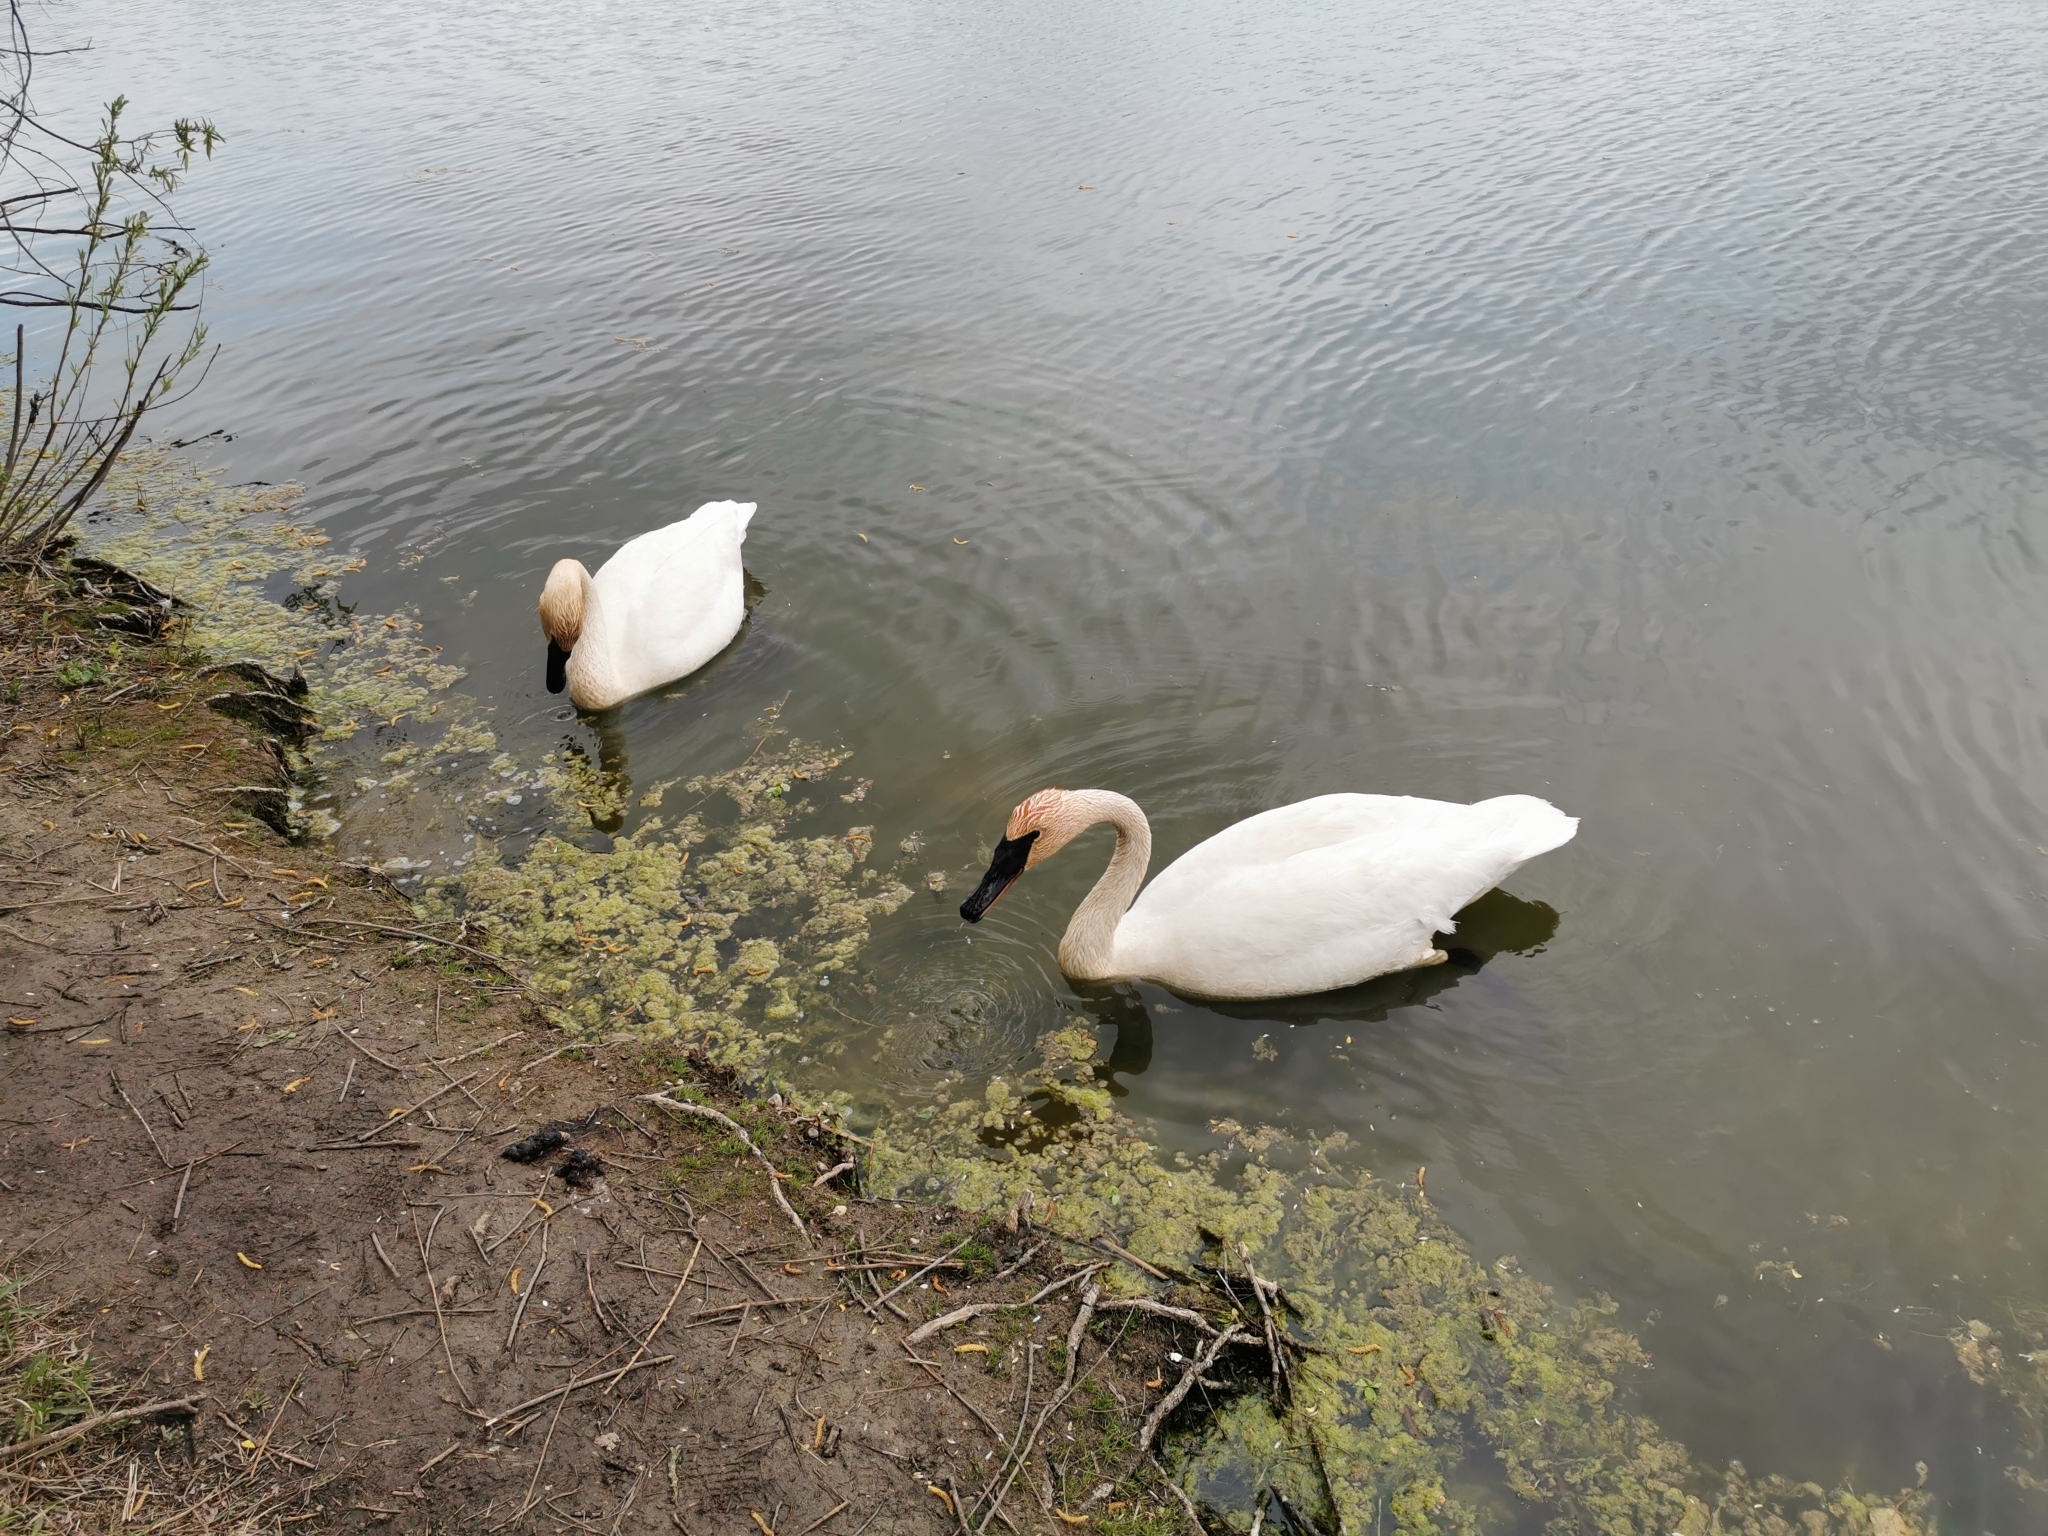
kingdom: Animalia
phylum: Chordata
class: Aves
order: Anseriformes
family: Anatidae
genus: Cygnus
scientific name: Cygnus buccinator
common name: Trumpeter swan
